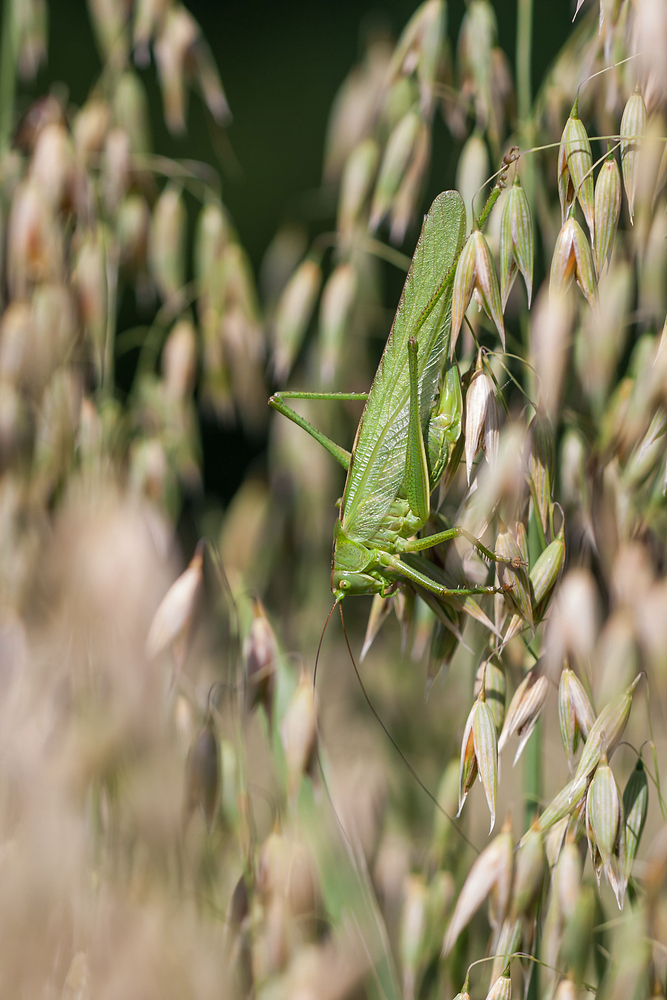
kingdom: Animalia
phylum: Arthropoda
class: Insecta
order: Orthoptera
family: Tettigoniidae
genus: Tettigonia
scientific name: Tettigonia viridissima
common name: Great green bush-cricket
